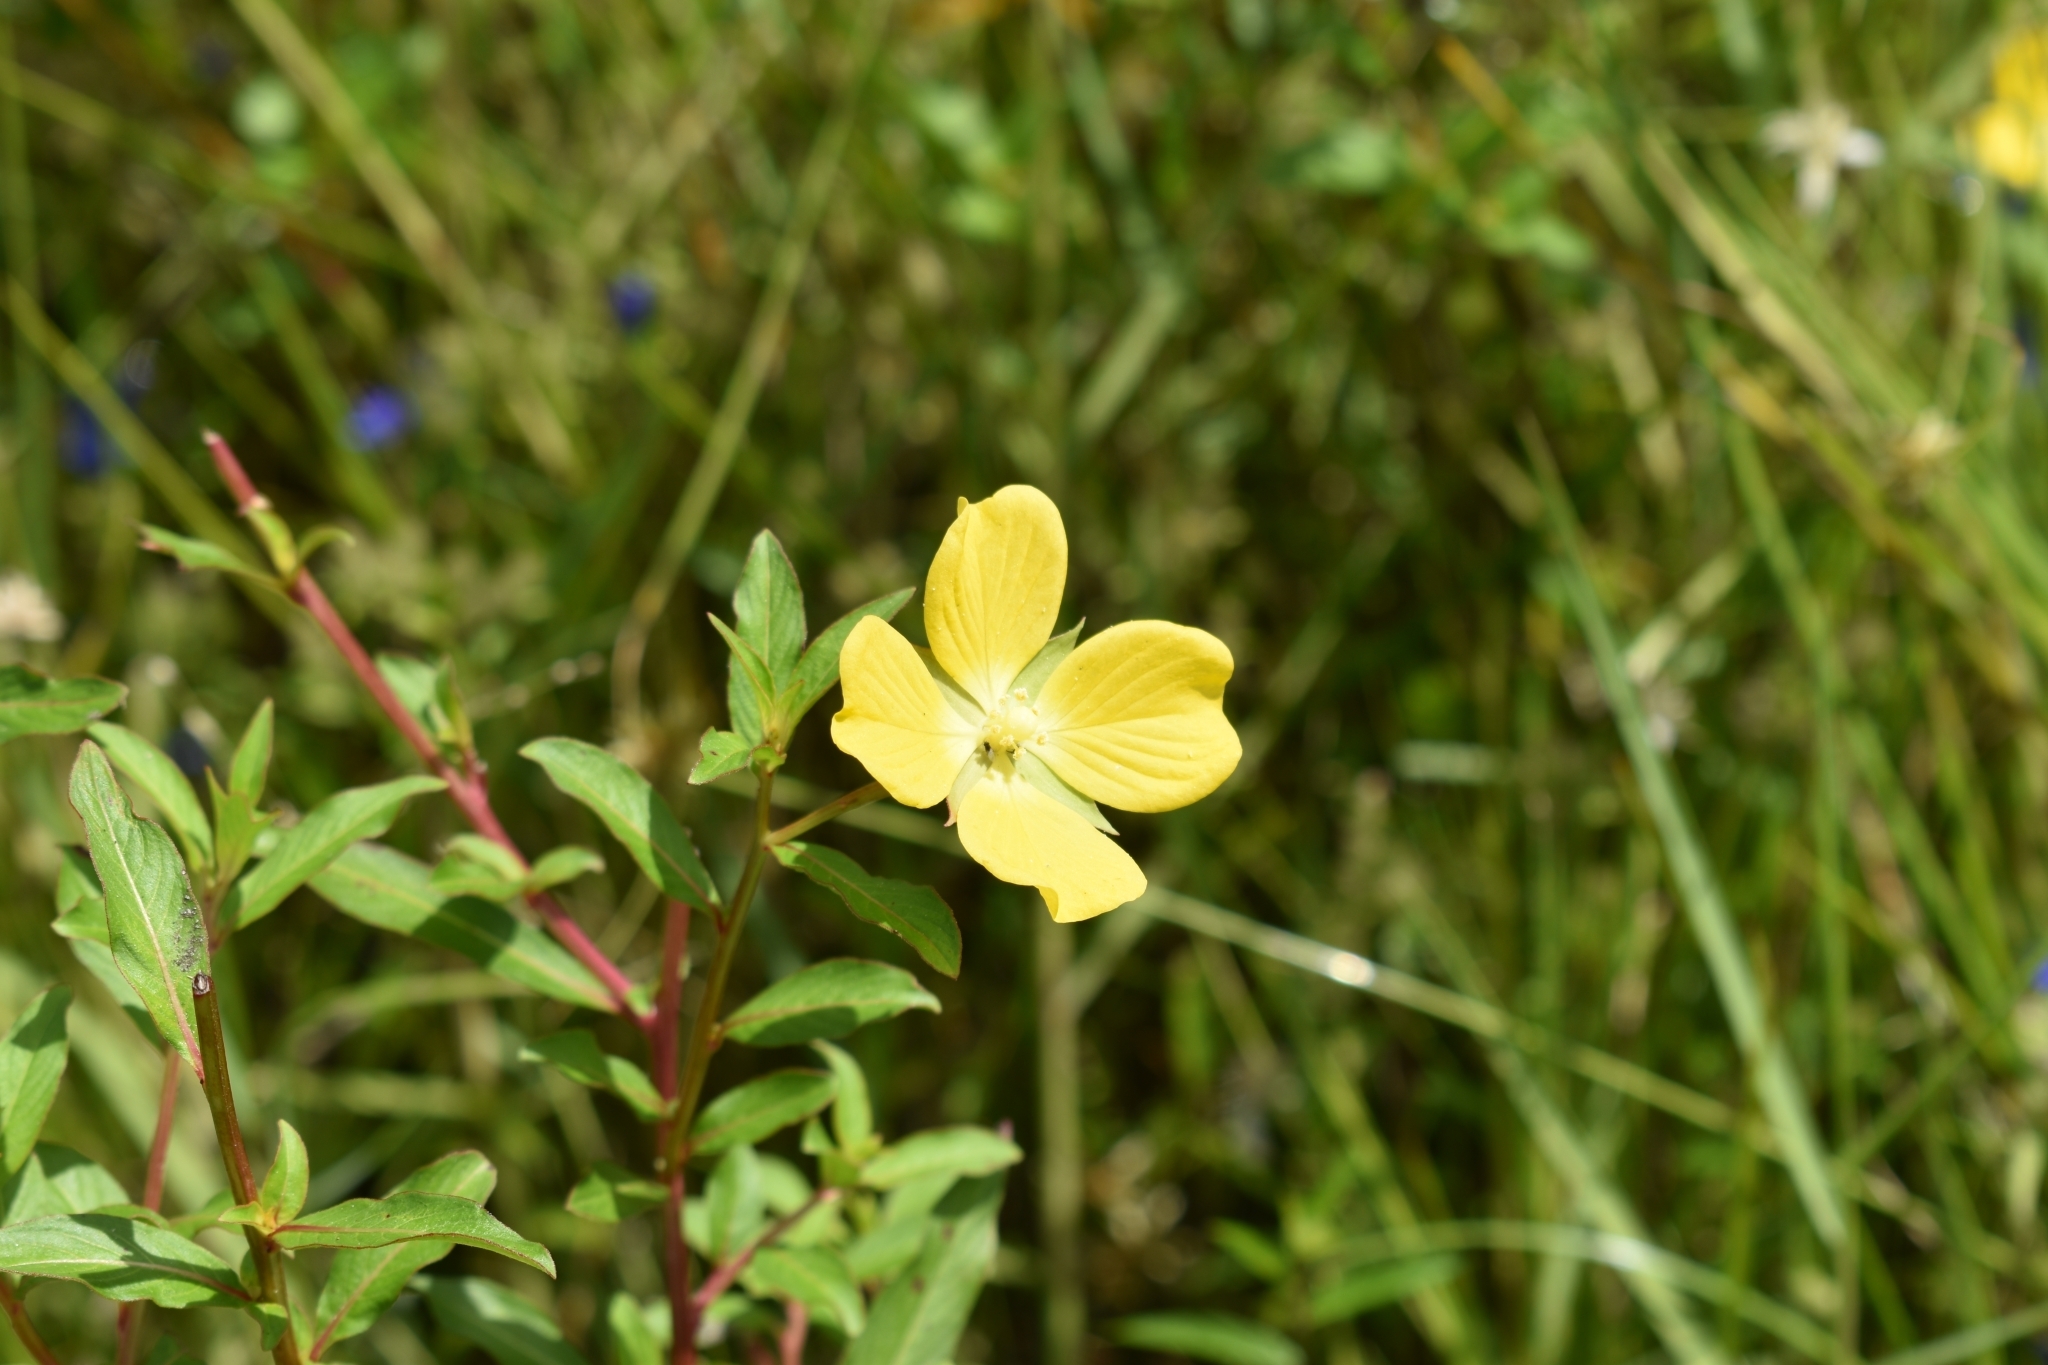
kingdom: Plantae
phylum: Tracheophyta
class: Magnoliopsida
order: Myrtales
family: Onagraceae
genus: Ludwigia
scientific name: Ludwigia octovalvis
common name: Water-primrose
